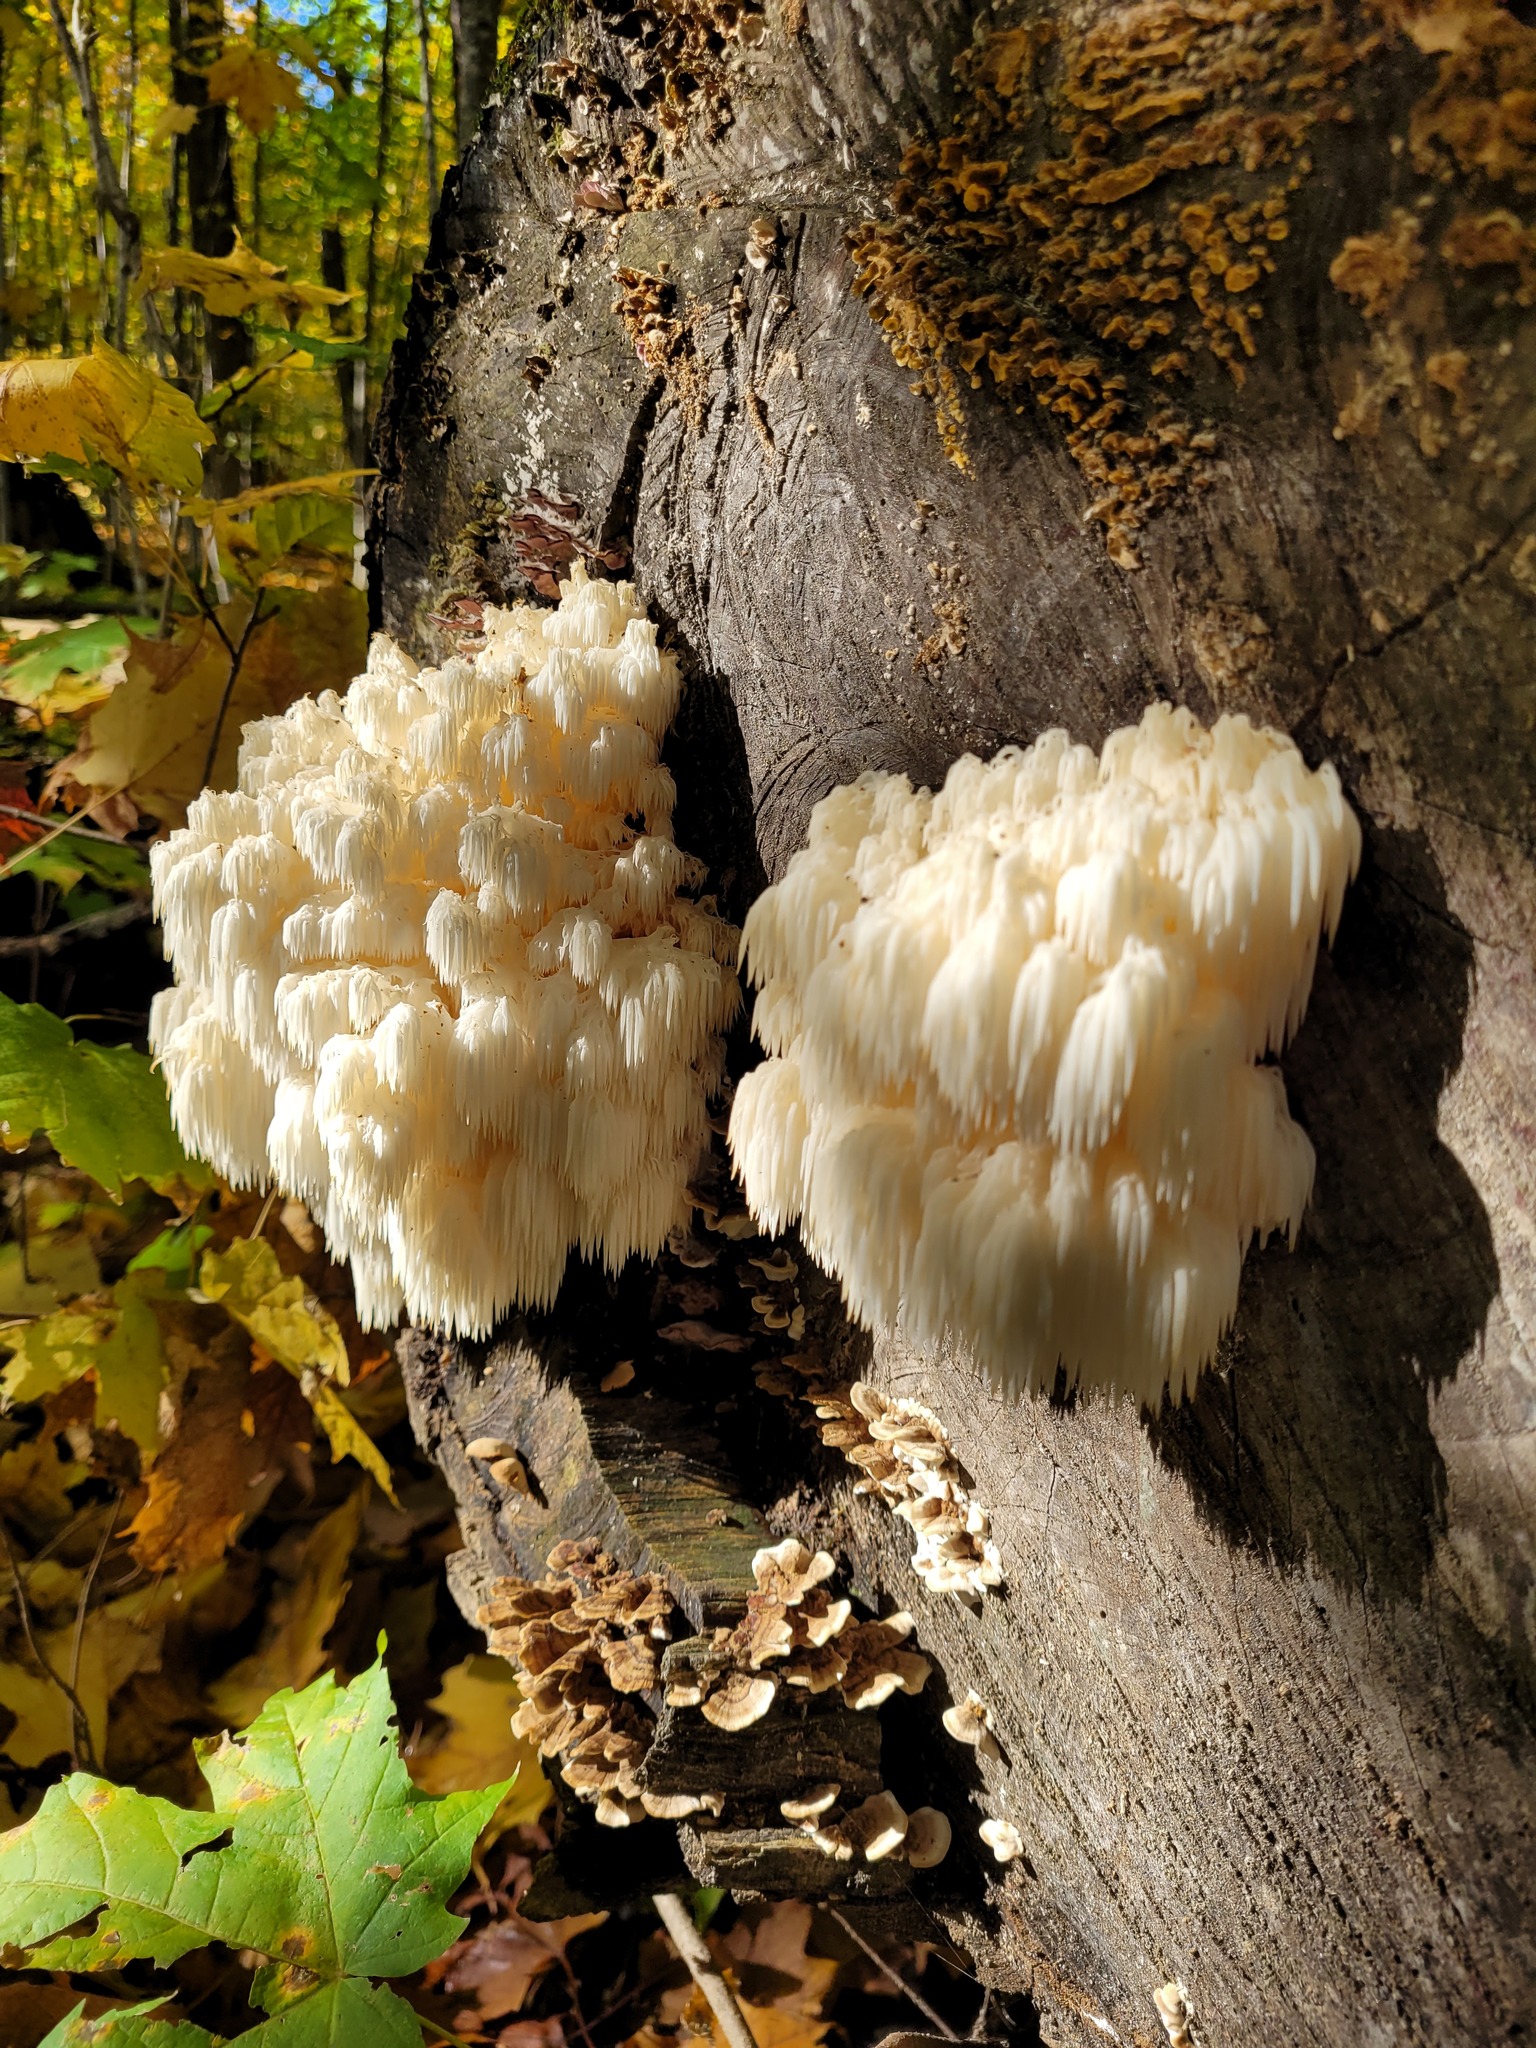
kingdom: Fungi
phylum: Basidiomycota
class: Agaricomycetes
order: Russulales
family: Hericiaceae
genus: Hericium
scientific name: Hericium americanum
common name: Bear's head tooth
